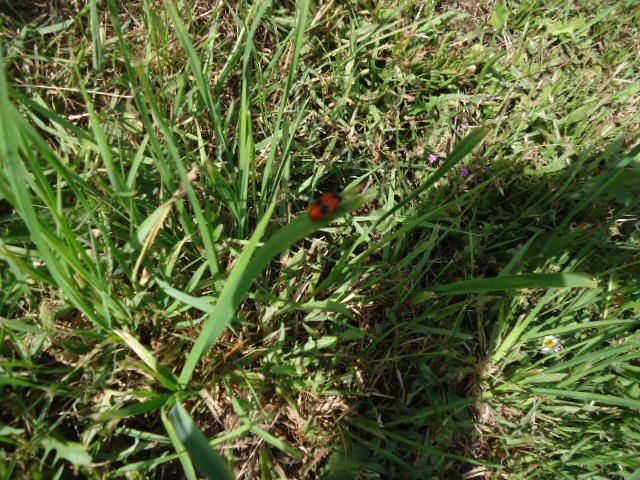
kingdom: Animalia
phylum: Arthropoda
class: Insecta
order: Coleoptera
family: Chrysomelidae
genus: Clytra
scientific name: Clytra laeviuscula
